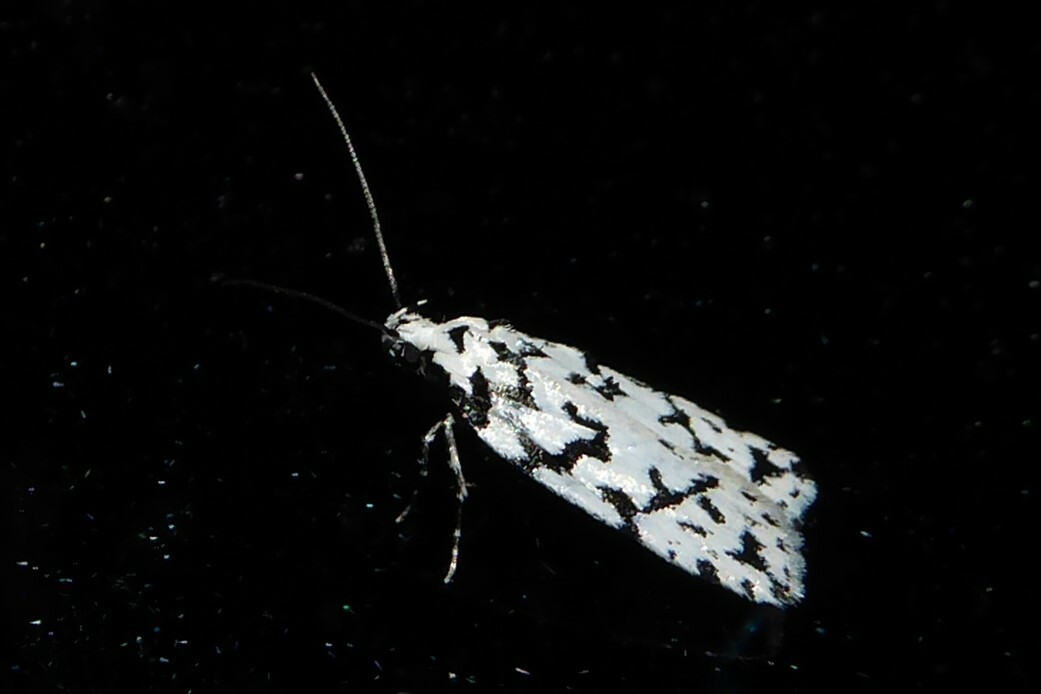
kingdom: Animalia
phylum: Arthropoda
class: Insecta
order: Lepidoptera
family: Oecophoridae
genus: Izatha
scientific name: Izatha katadiktya
